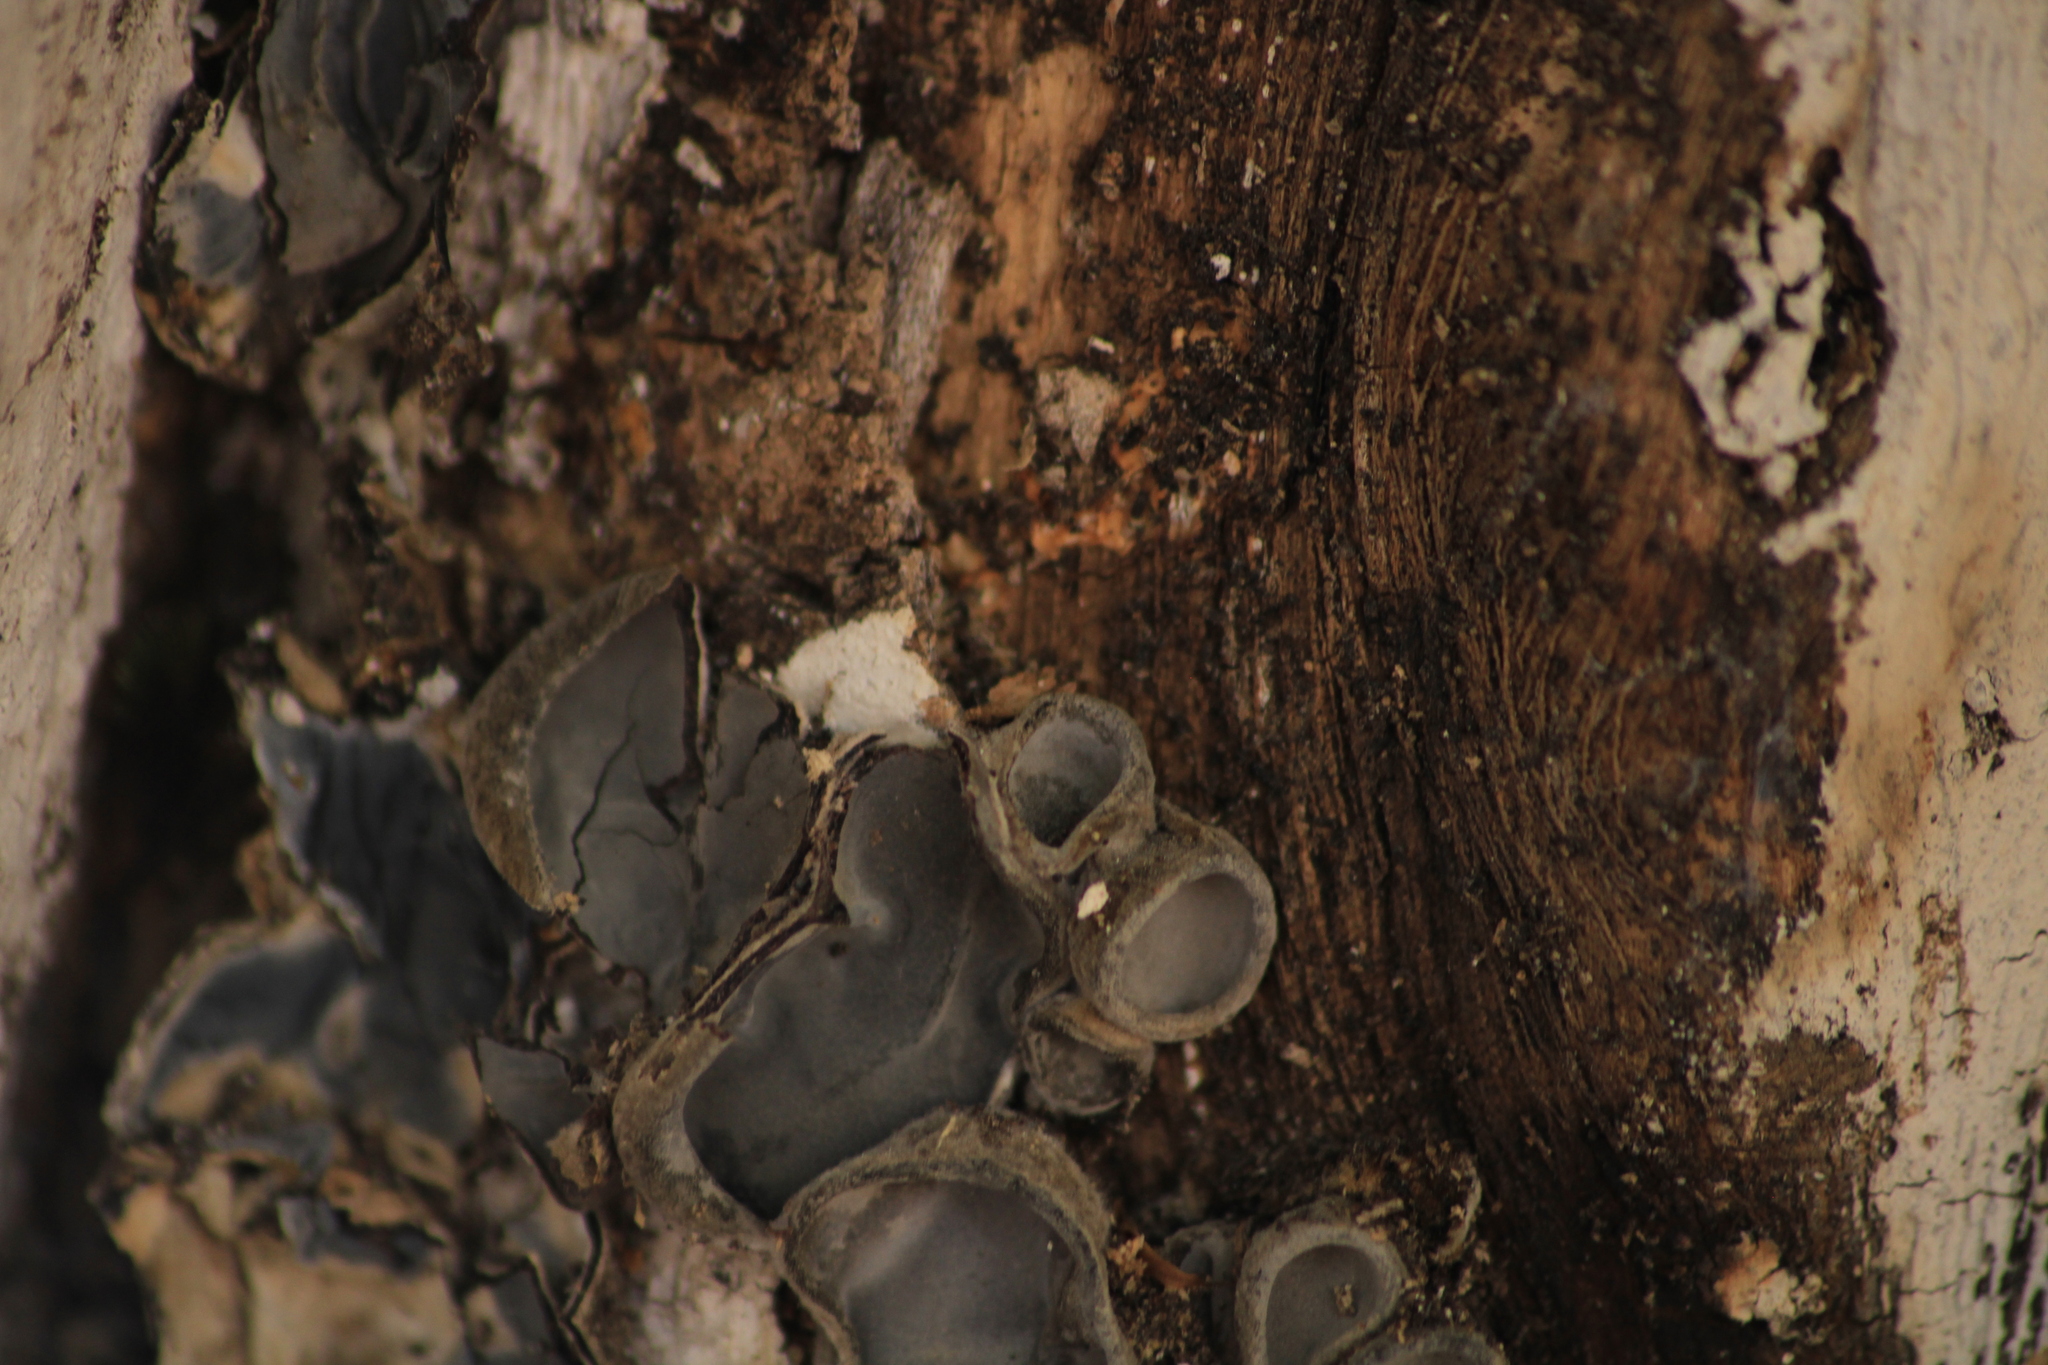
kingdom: Fungi
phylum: Basidiomycota
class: Agaricomycetes
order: Auriculariales
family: Auriculariaceae
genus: Auricularia
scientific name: Auricularia nigricans
